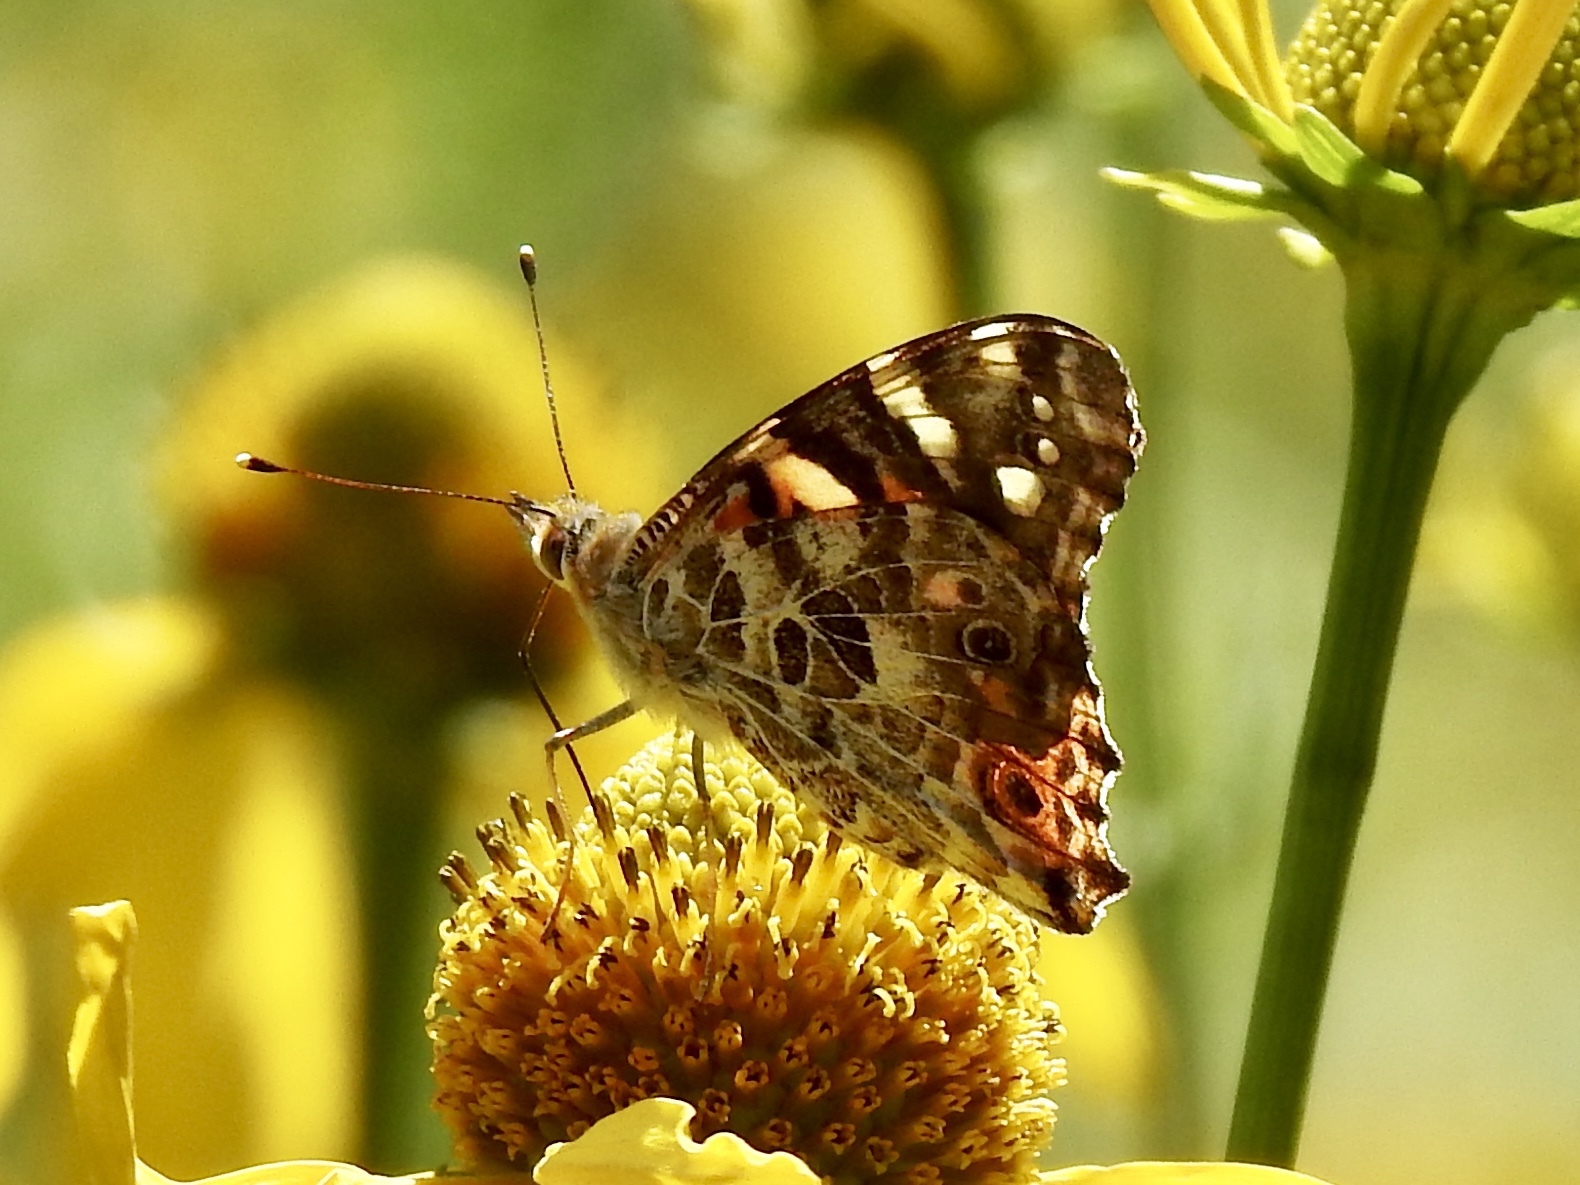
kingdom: Animalia
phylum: Arthropoda
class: Insecta
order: Lepidoptera
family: Nymphalidae
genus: Vanessa
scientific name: Vanessa cardui
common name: Painted lady
